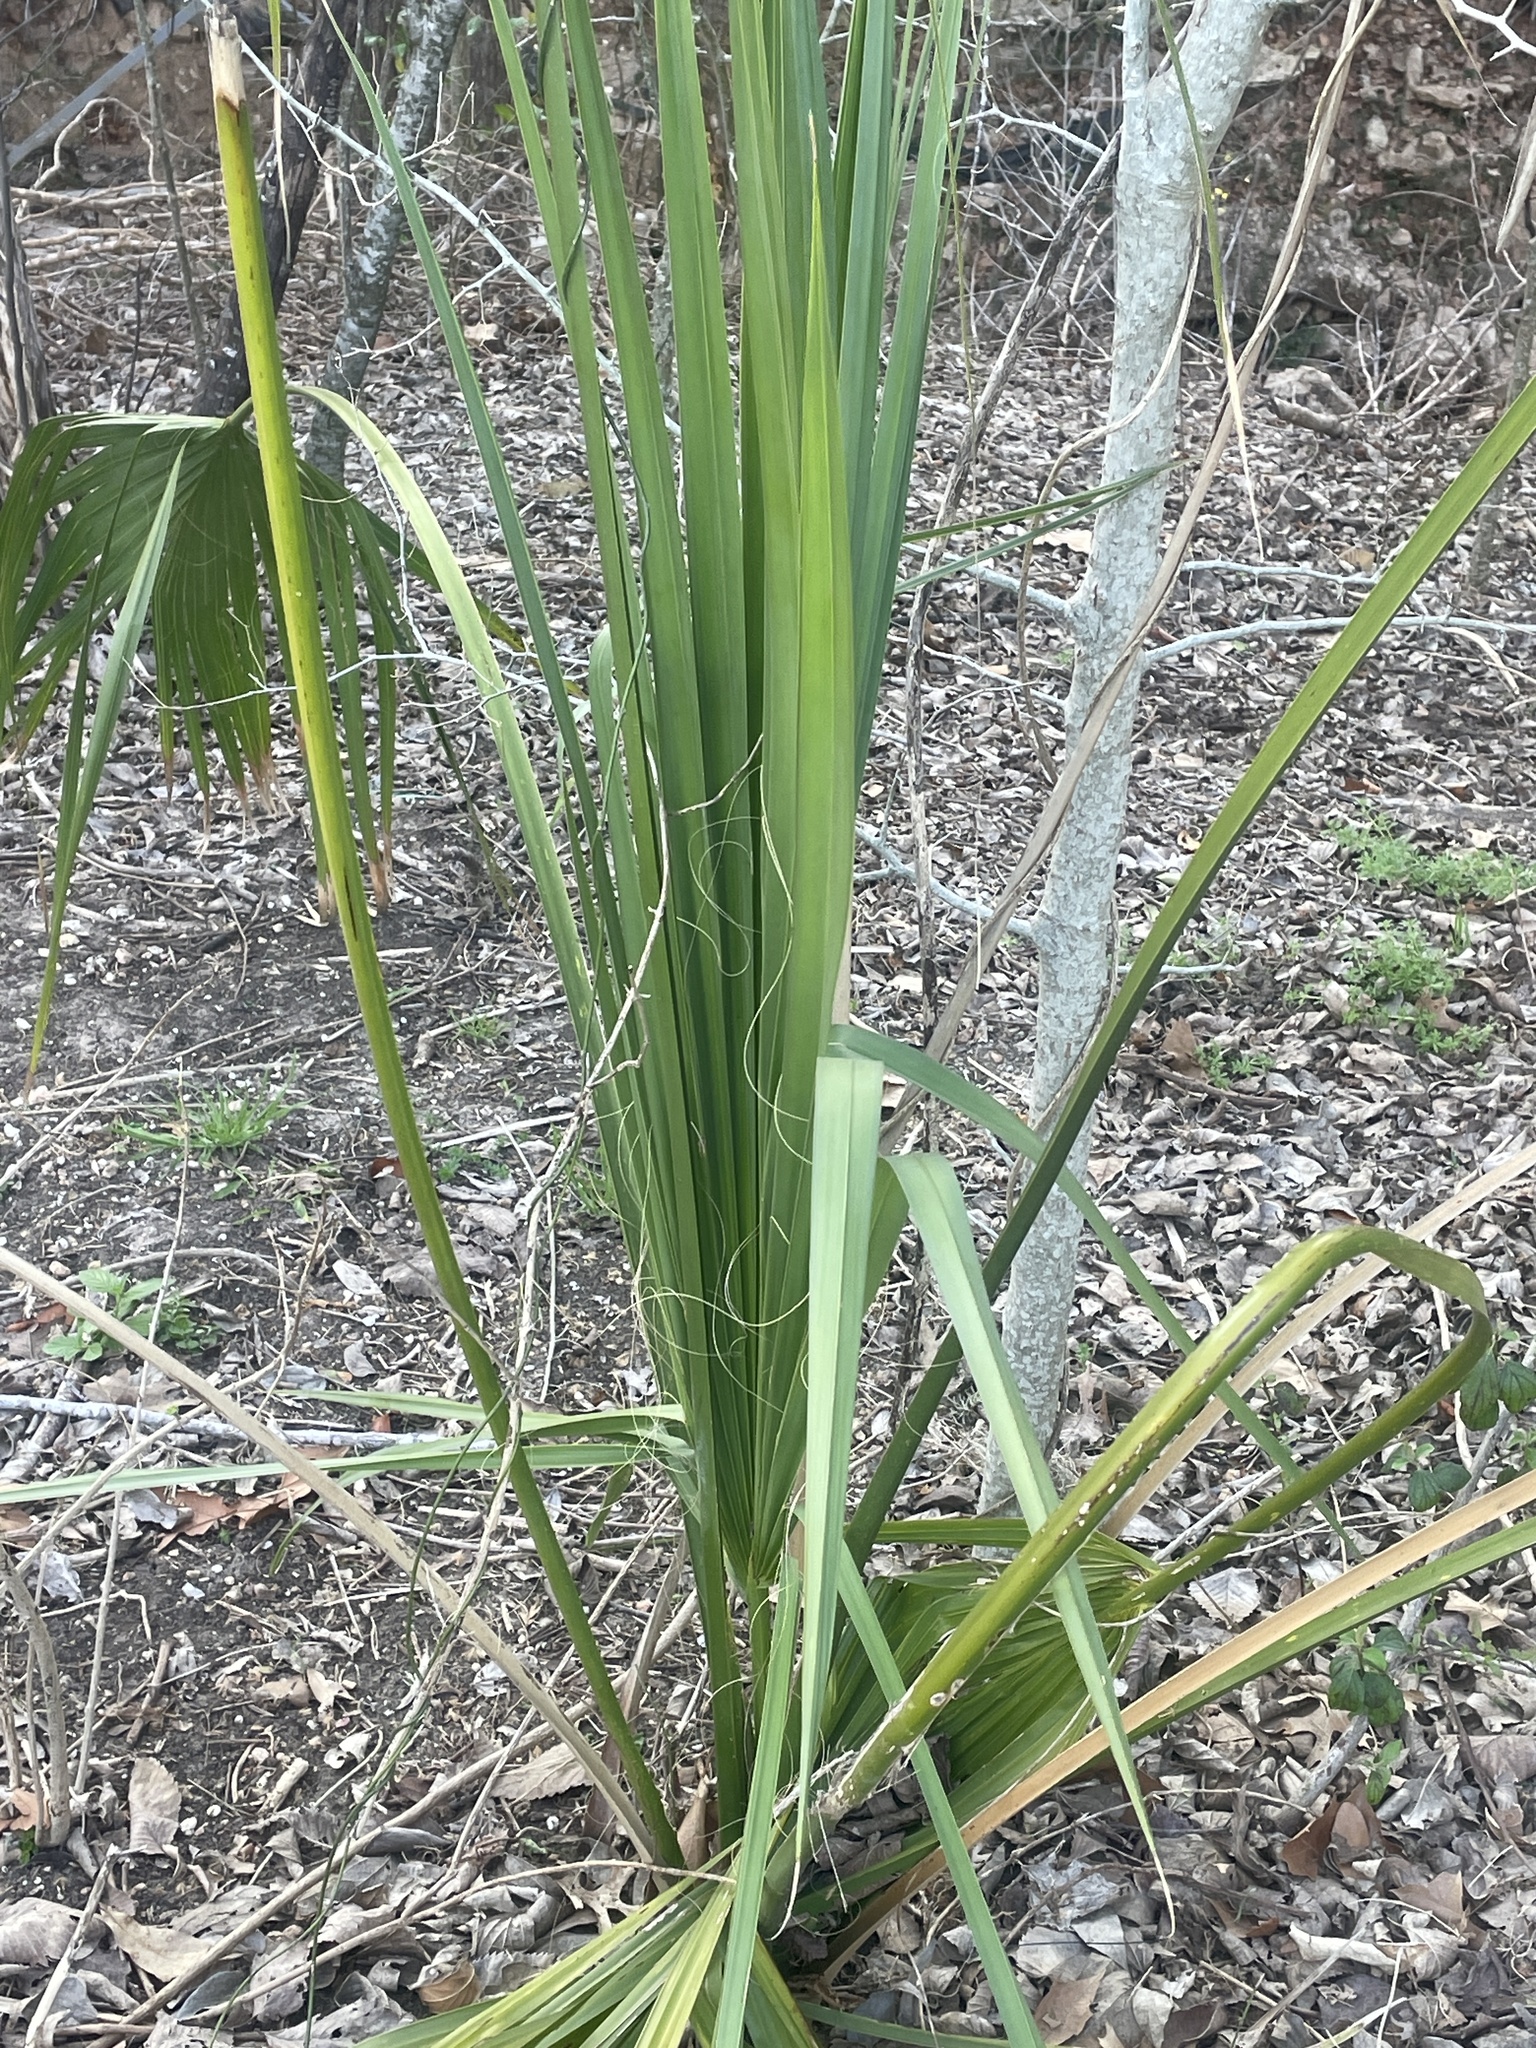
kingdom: Plantae
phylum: Tracheophyta
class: Liliopsida
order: Arecales
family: Arecaceae
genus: Sabal
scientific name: Sabal minor
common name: Dwarf palmetto
